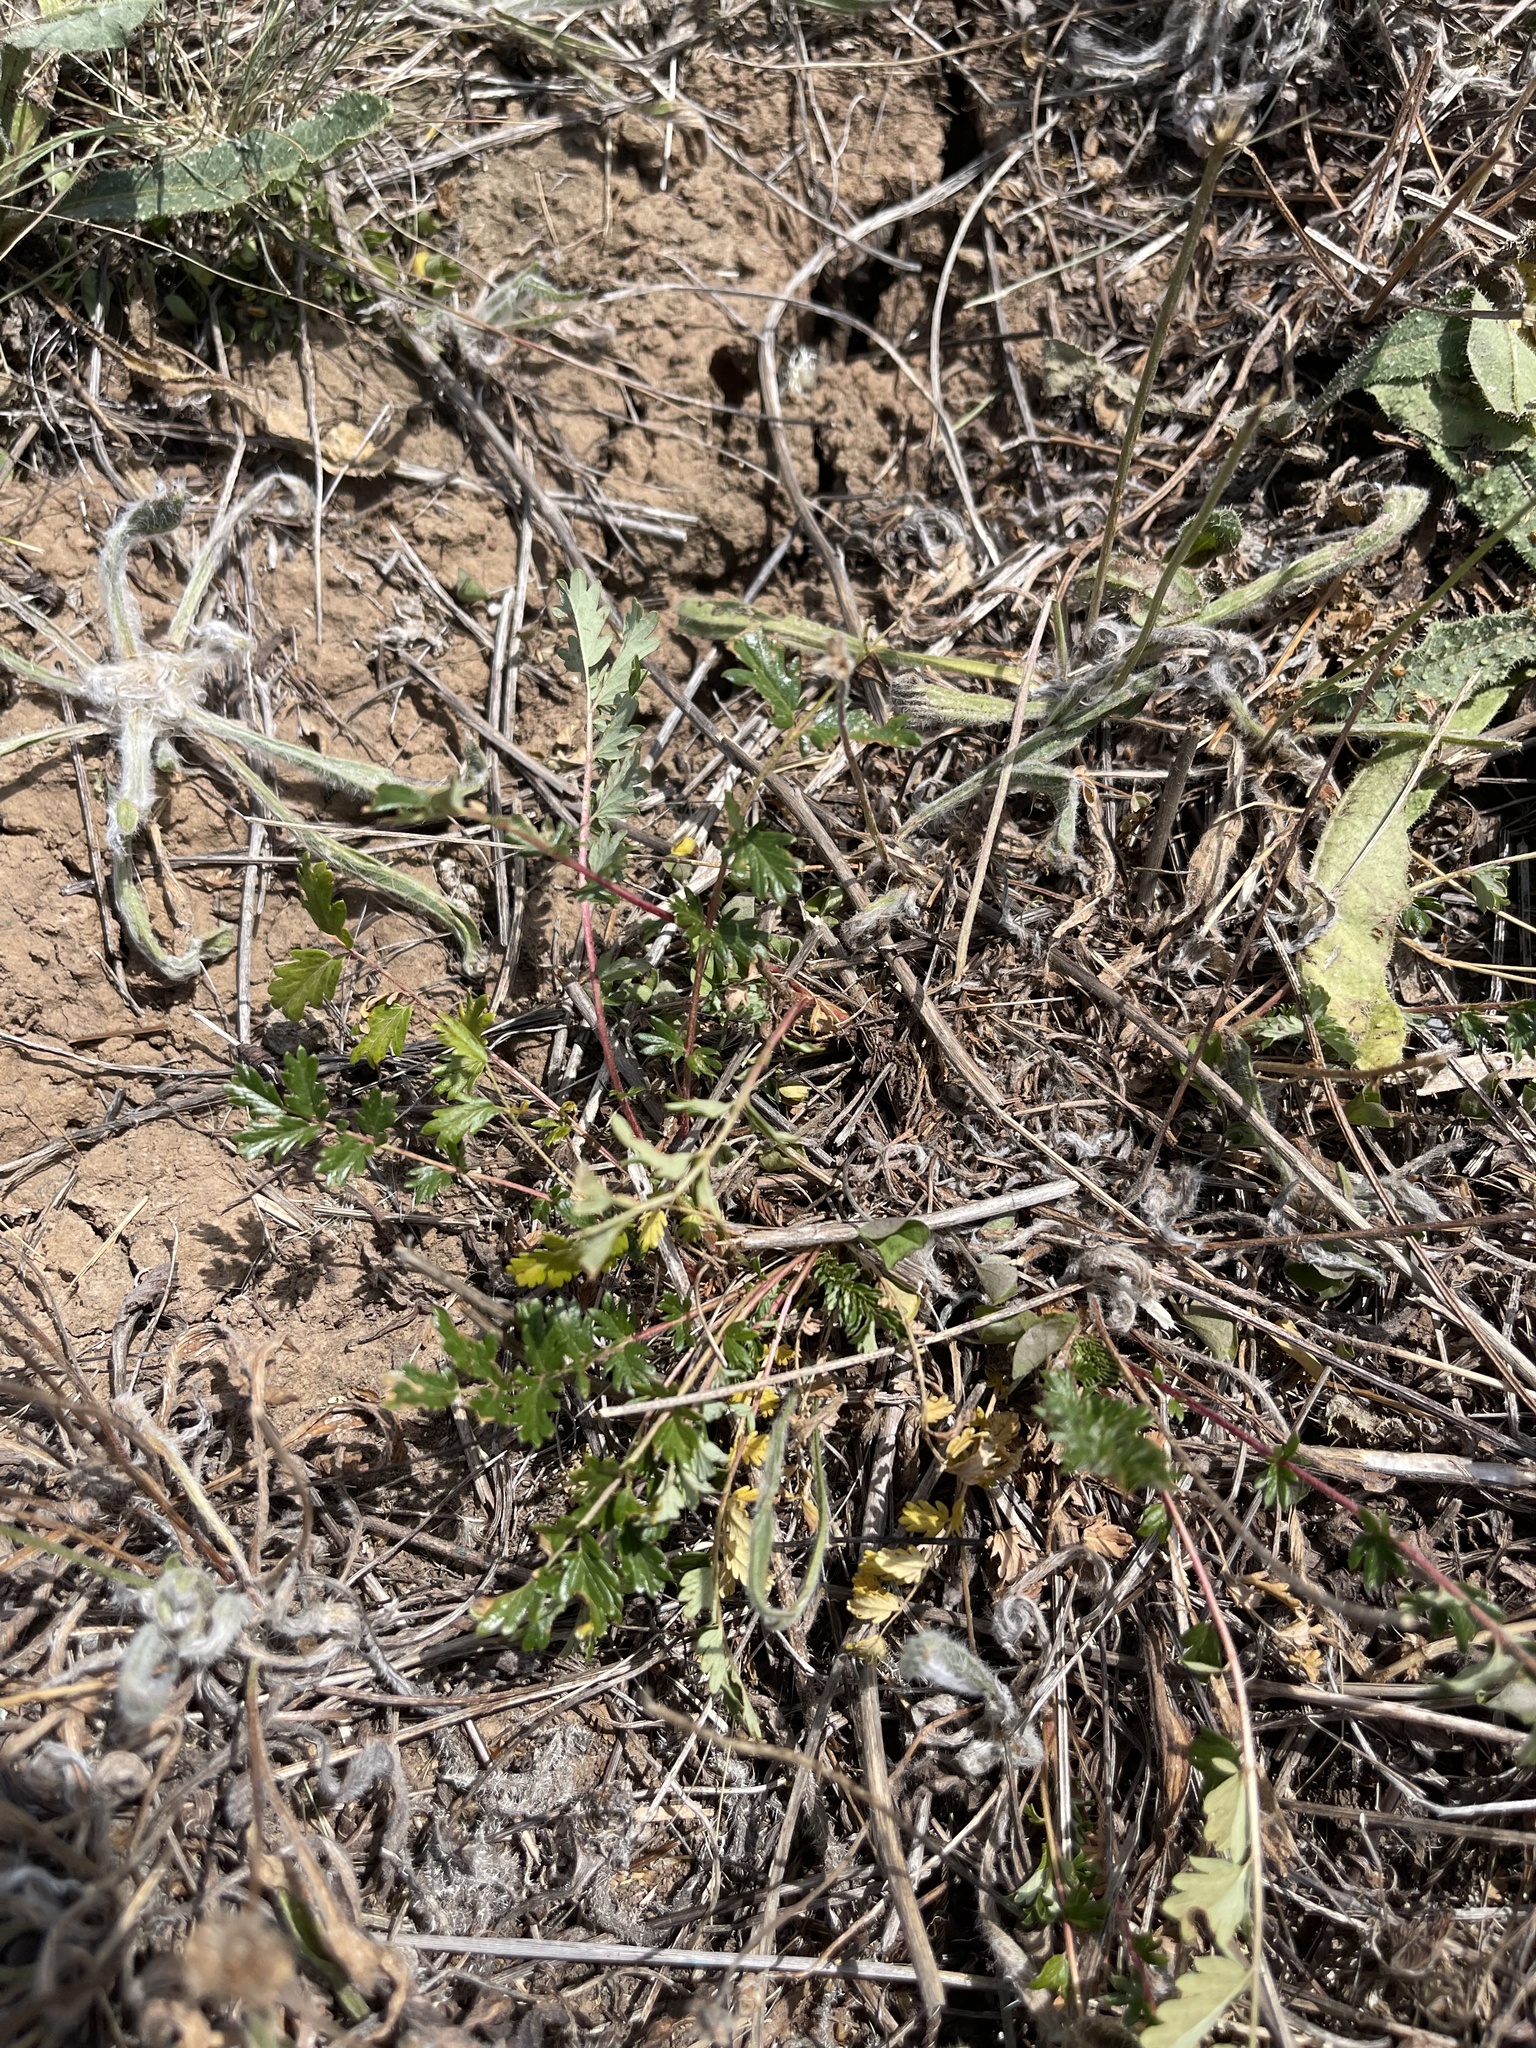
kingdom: Plantae
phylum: Tracheophyta
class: Magnoliopsida
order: Rosales
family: Rosaceae
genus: Acaena
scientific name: Acaena echinata
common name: Sheepbur
